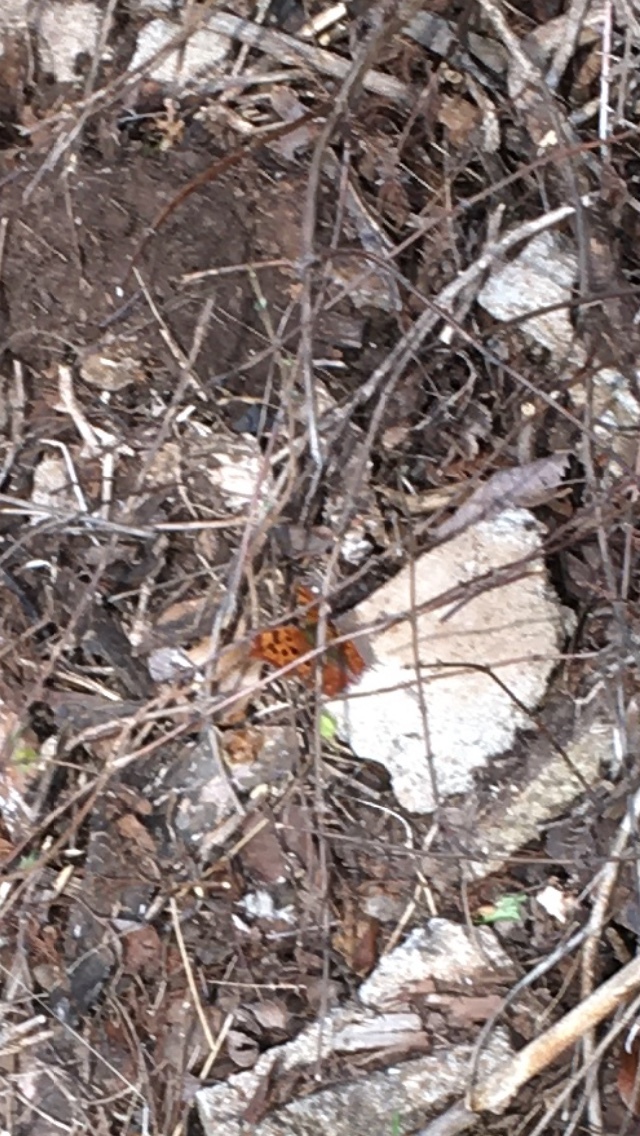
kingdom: Animalia
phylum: Arthropoda
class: Insecta
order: Lepidoptera
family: Nymphalidae
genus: Polygonia
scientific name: Polygonia interrogationis
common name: Question mark
